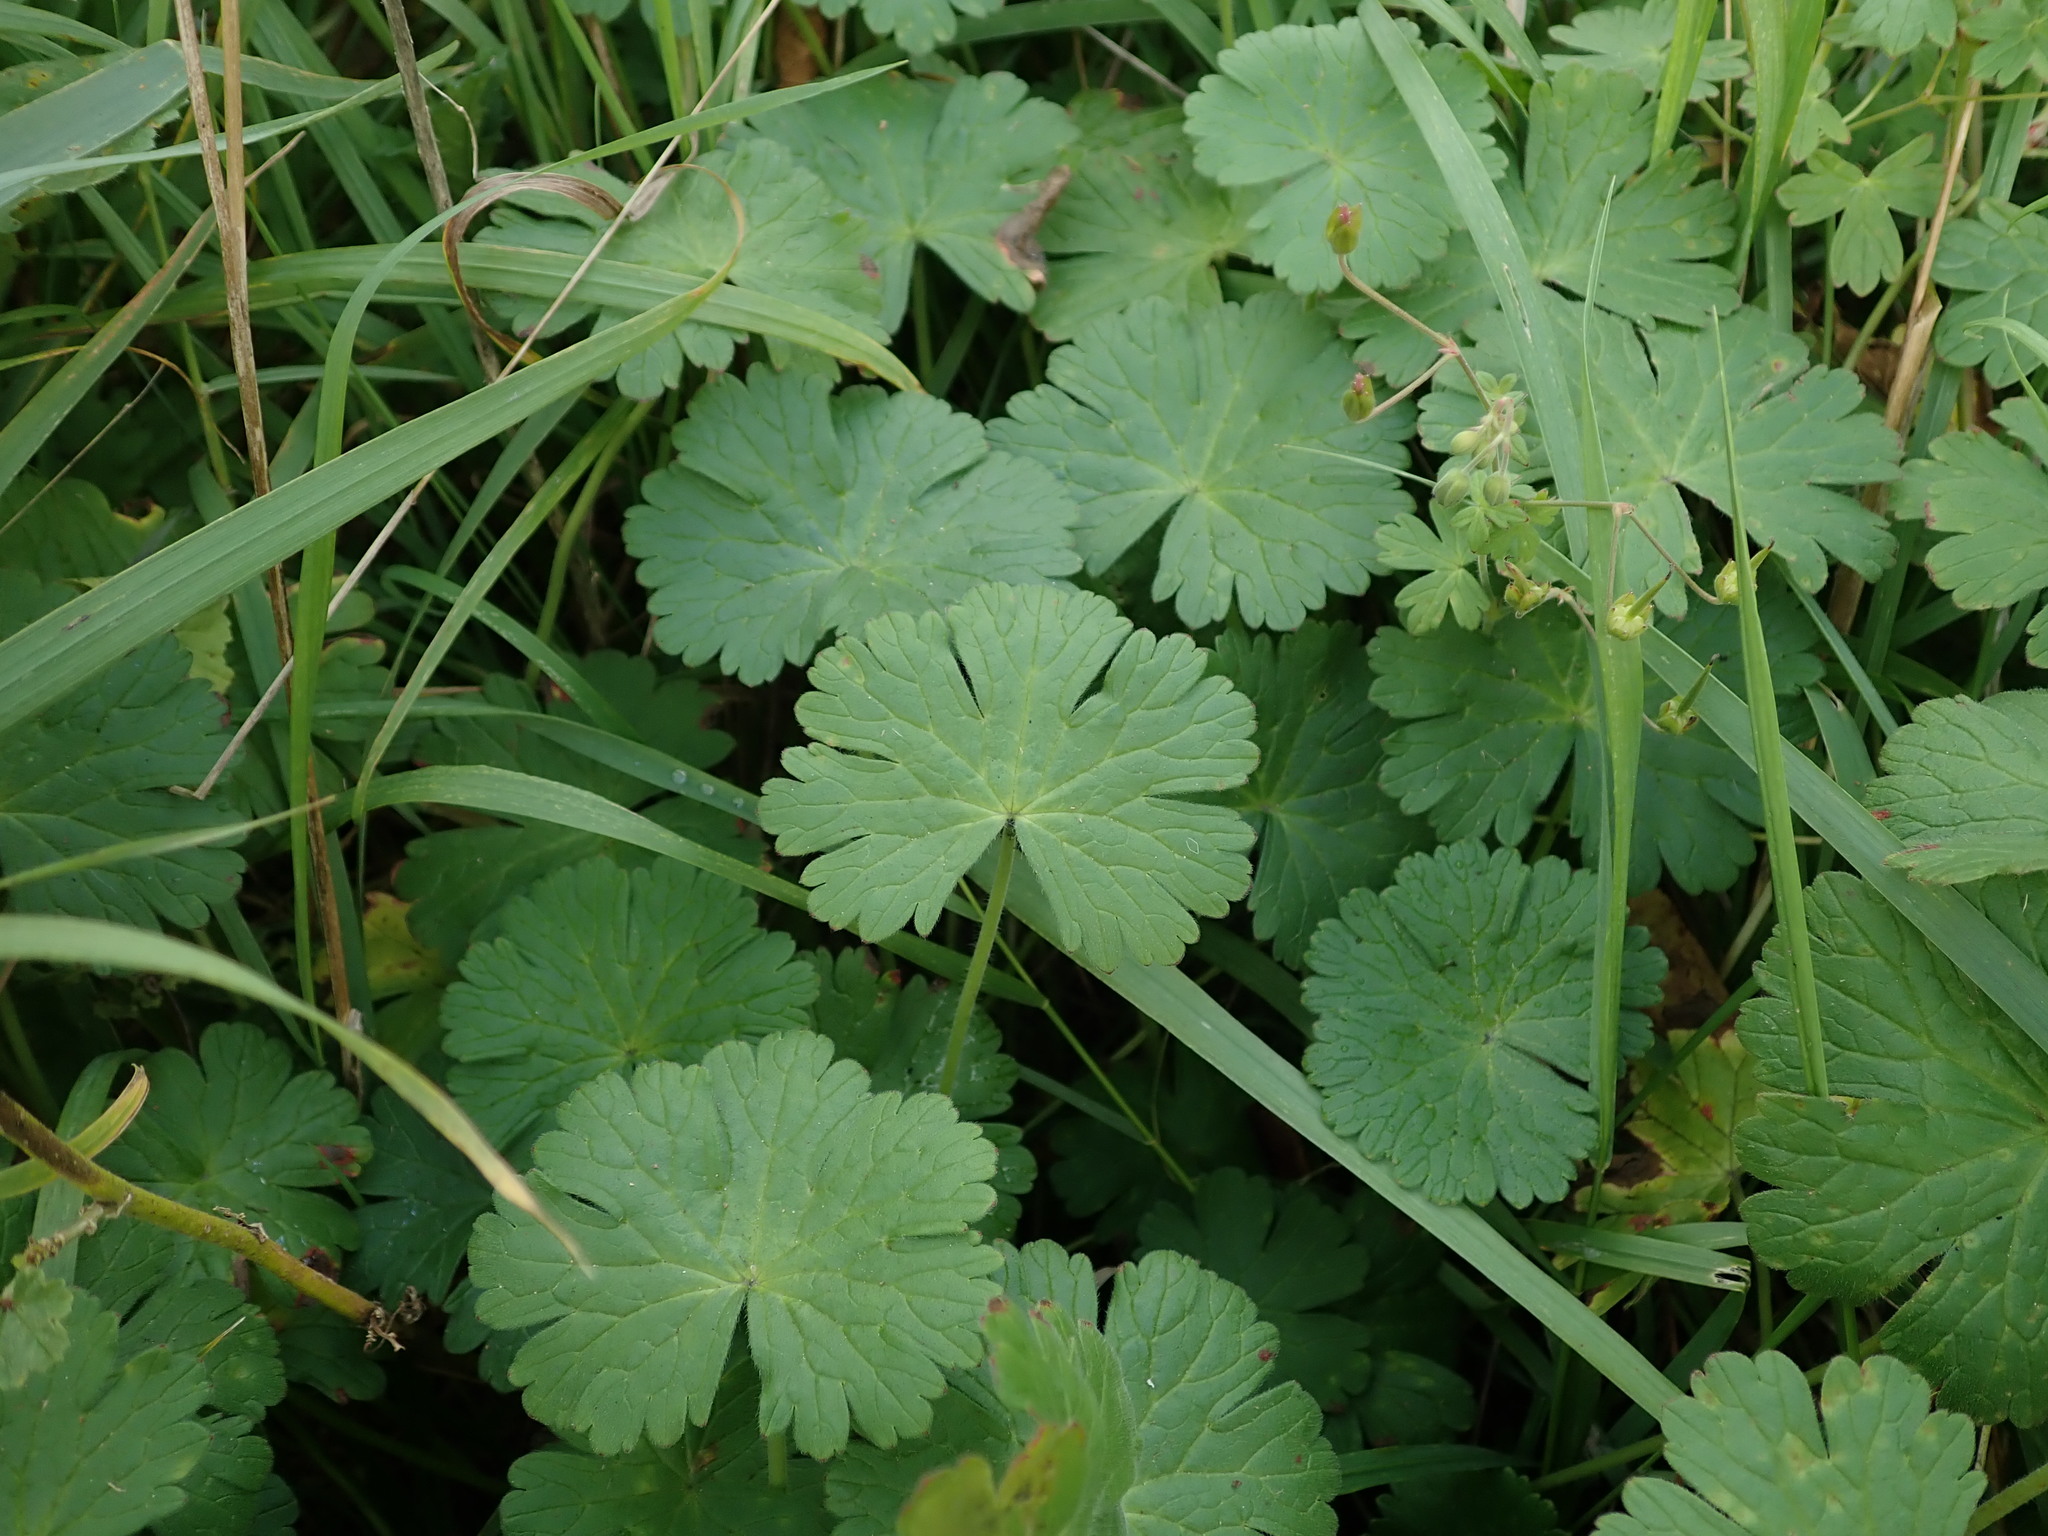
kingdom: Plantae
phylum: Tracheophyta
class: Magnoliopsida
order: Geraniales
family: Geraniaceae
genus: Geranium
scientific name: Geranium pyrenaicum
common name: Hedgerow crane's-bill
